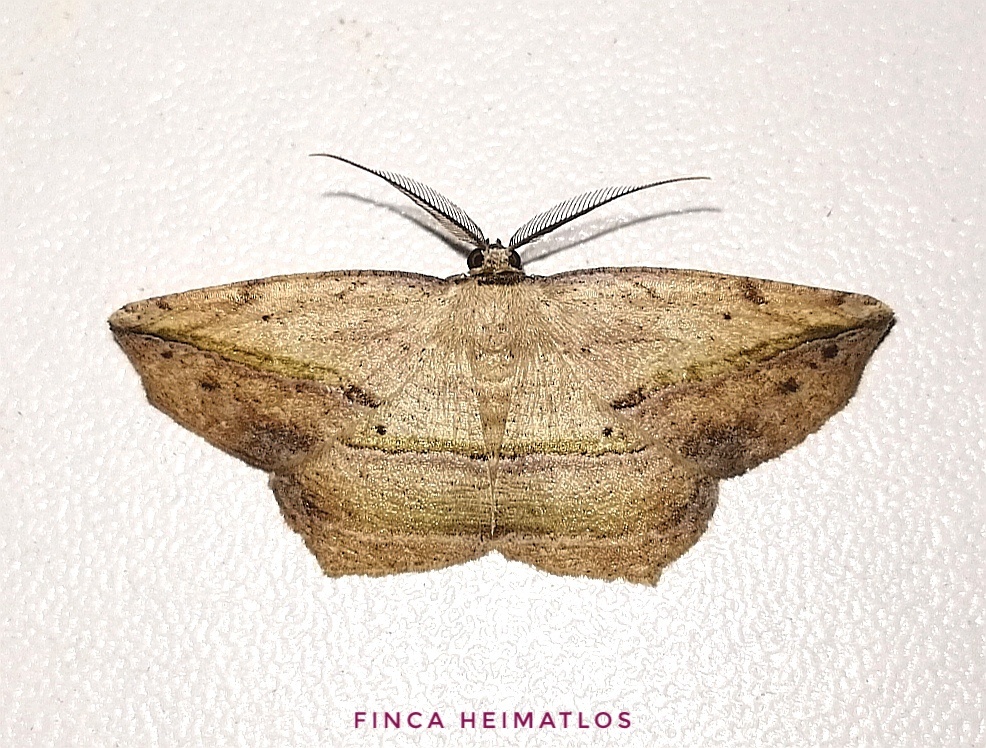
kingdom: Animalia
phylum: Arthropoda
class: Insecta
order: Lepidoptera
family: Geometridae
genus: Eusarca
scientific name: Eusarca flexilis
